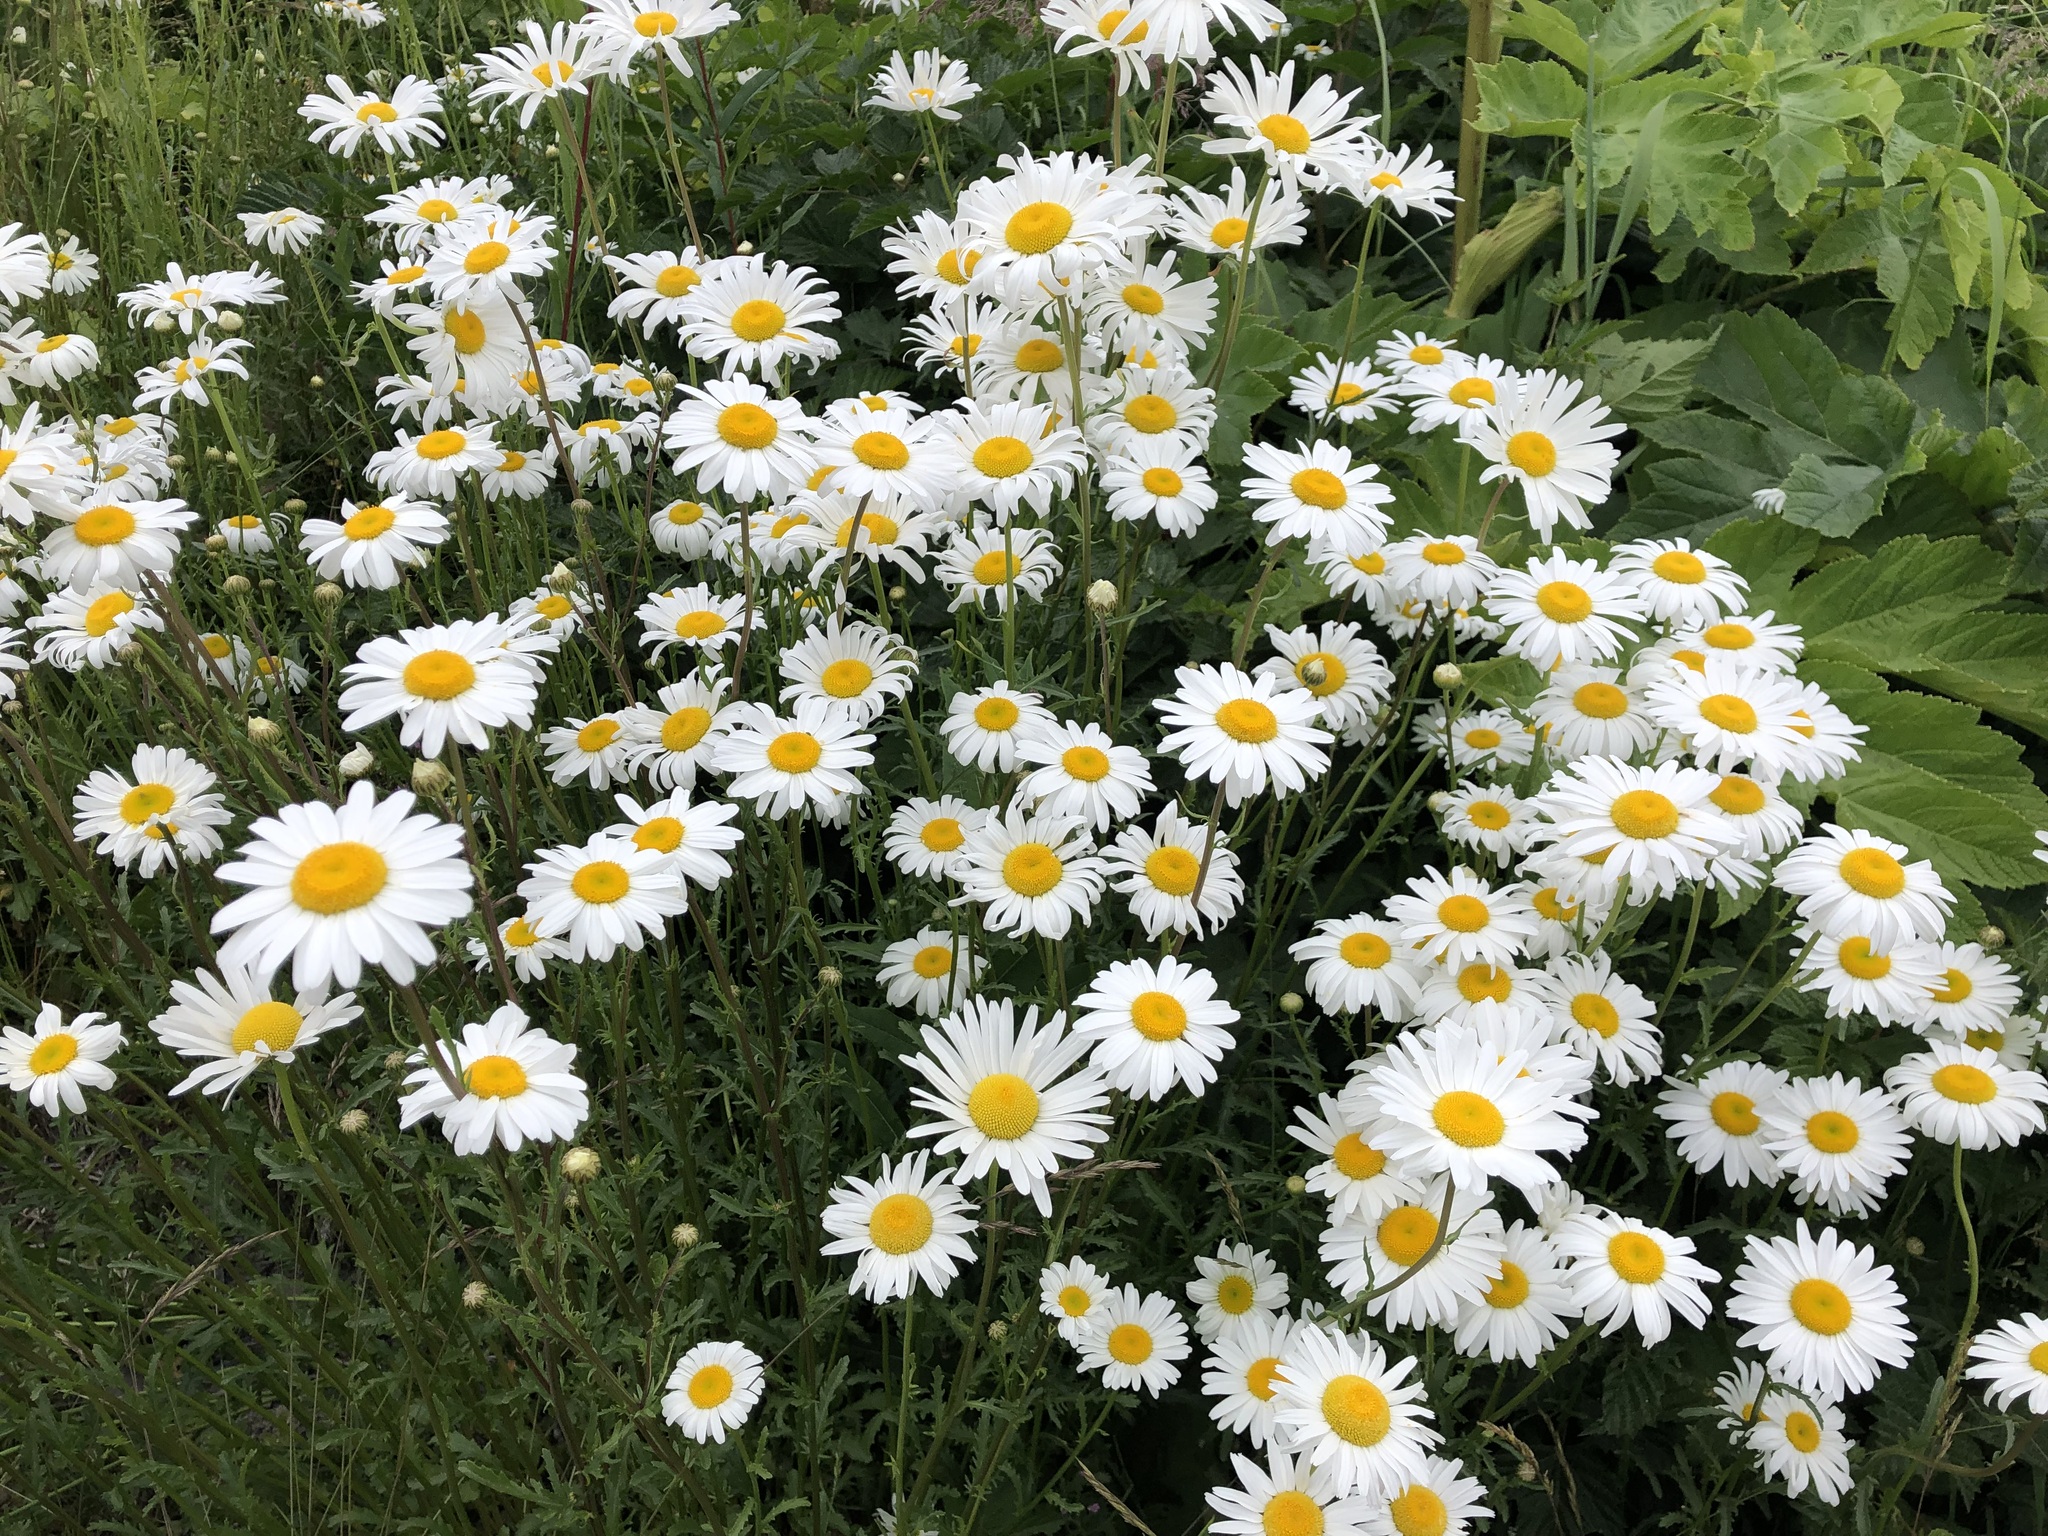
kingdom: Plantae
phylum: Tracheophyta
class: Magnoliopsida
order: Asterales
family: Asteraceae
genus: Leucanthemum
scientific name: Leucanthemum vulgare
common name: Oxeye daisy
